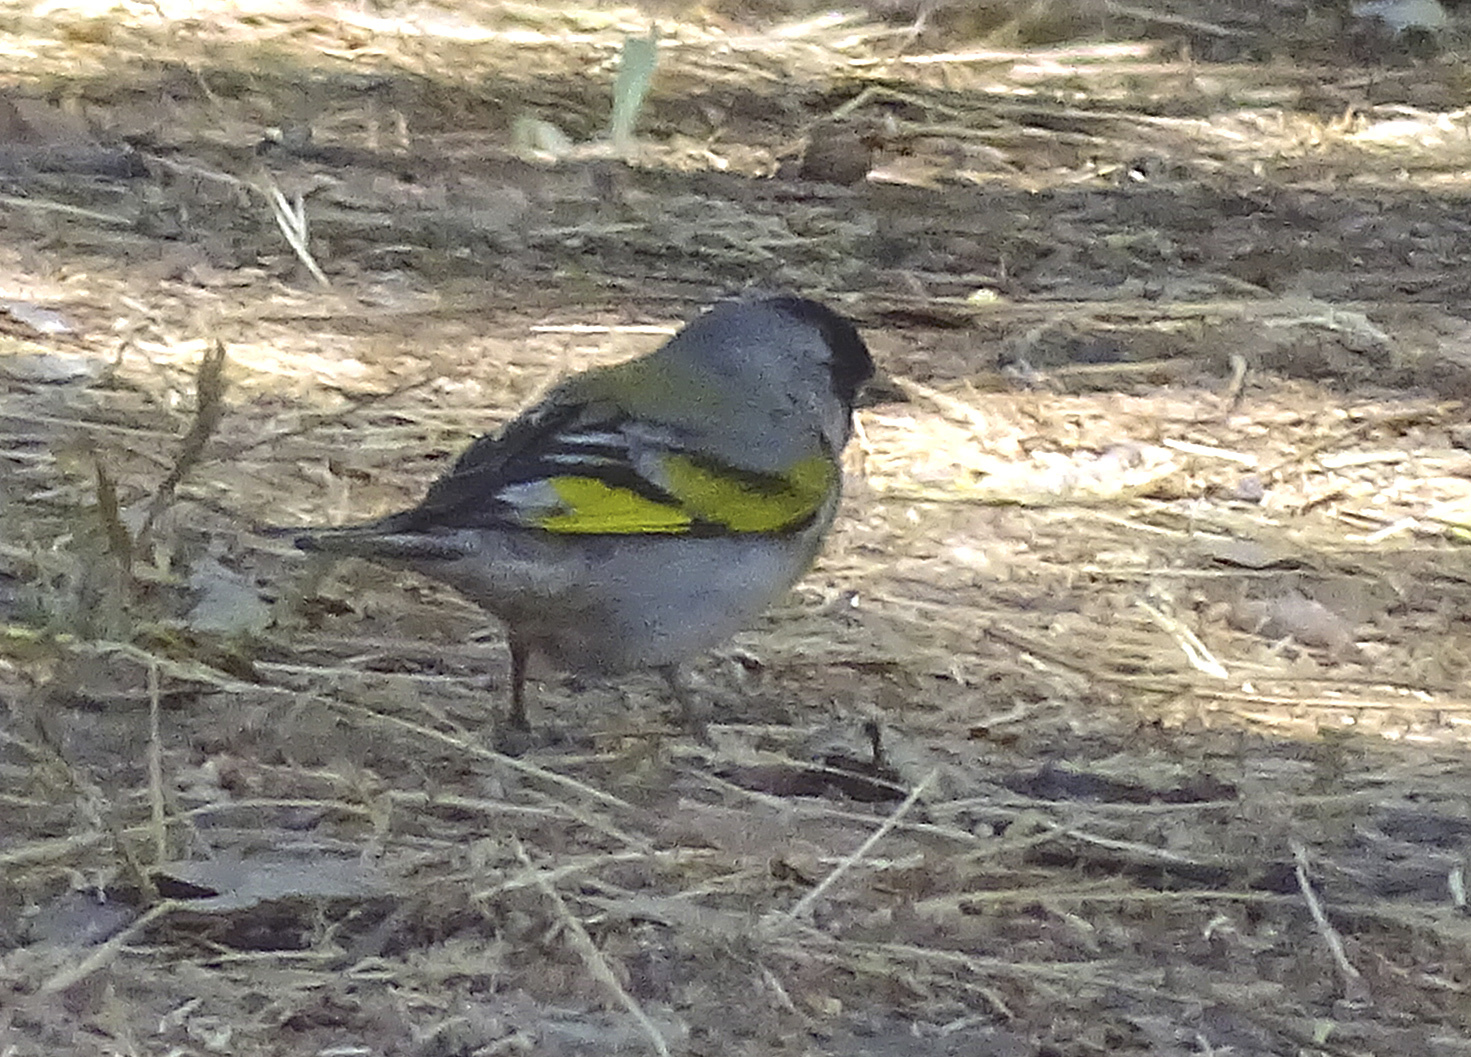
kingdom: Animalia
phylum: Chordata
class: Aves
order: Passeriformes
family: Fringillidae
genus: Spinus
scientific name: Spinus lawrencei
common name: Lawrence's goldfinch
